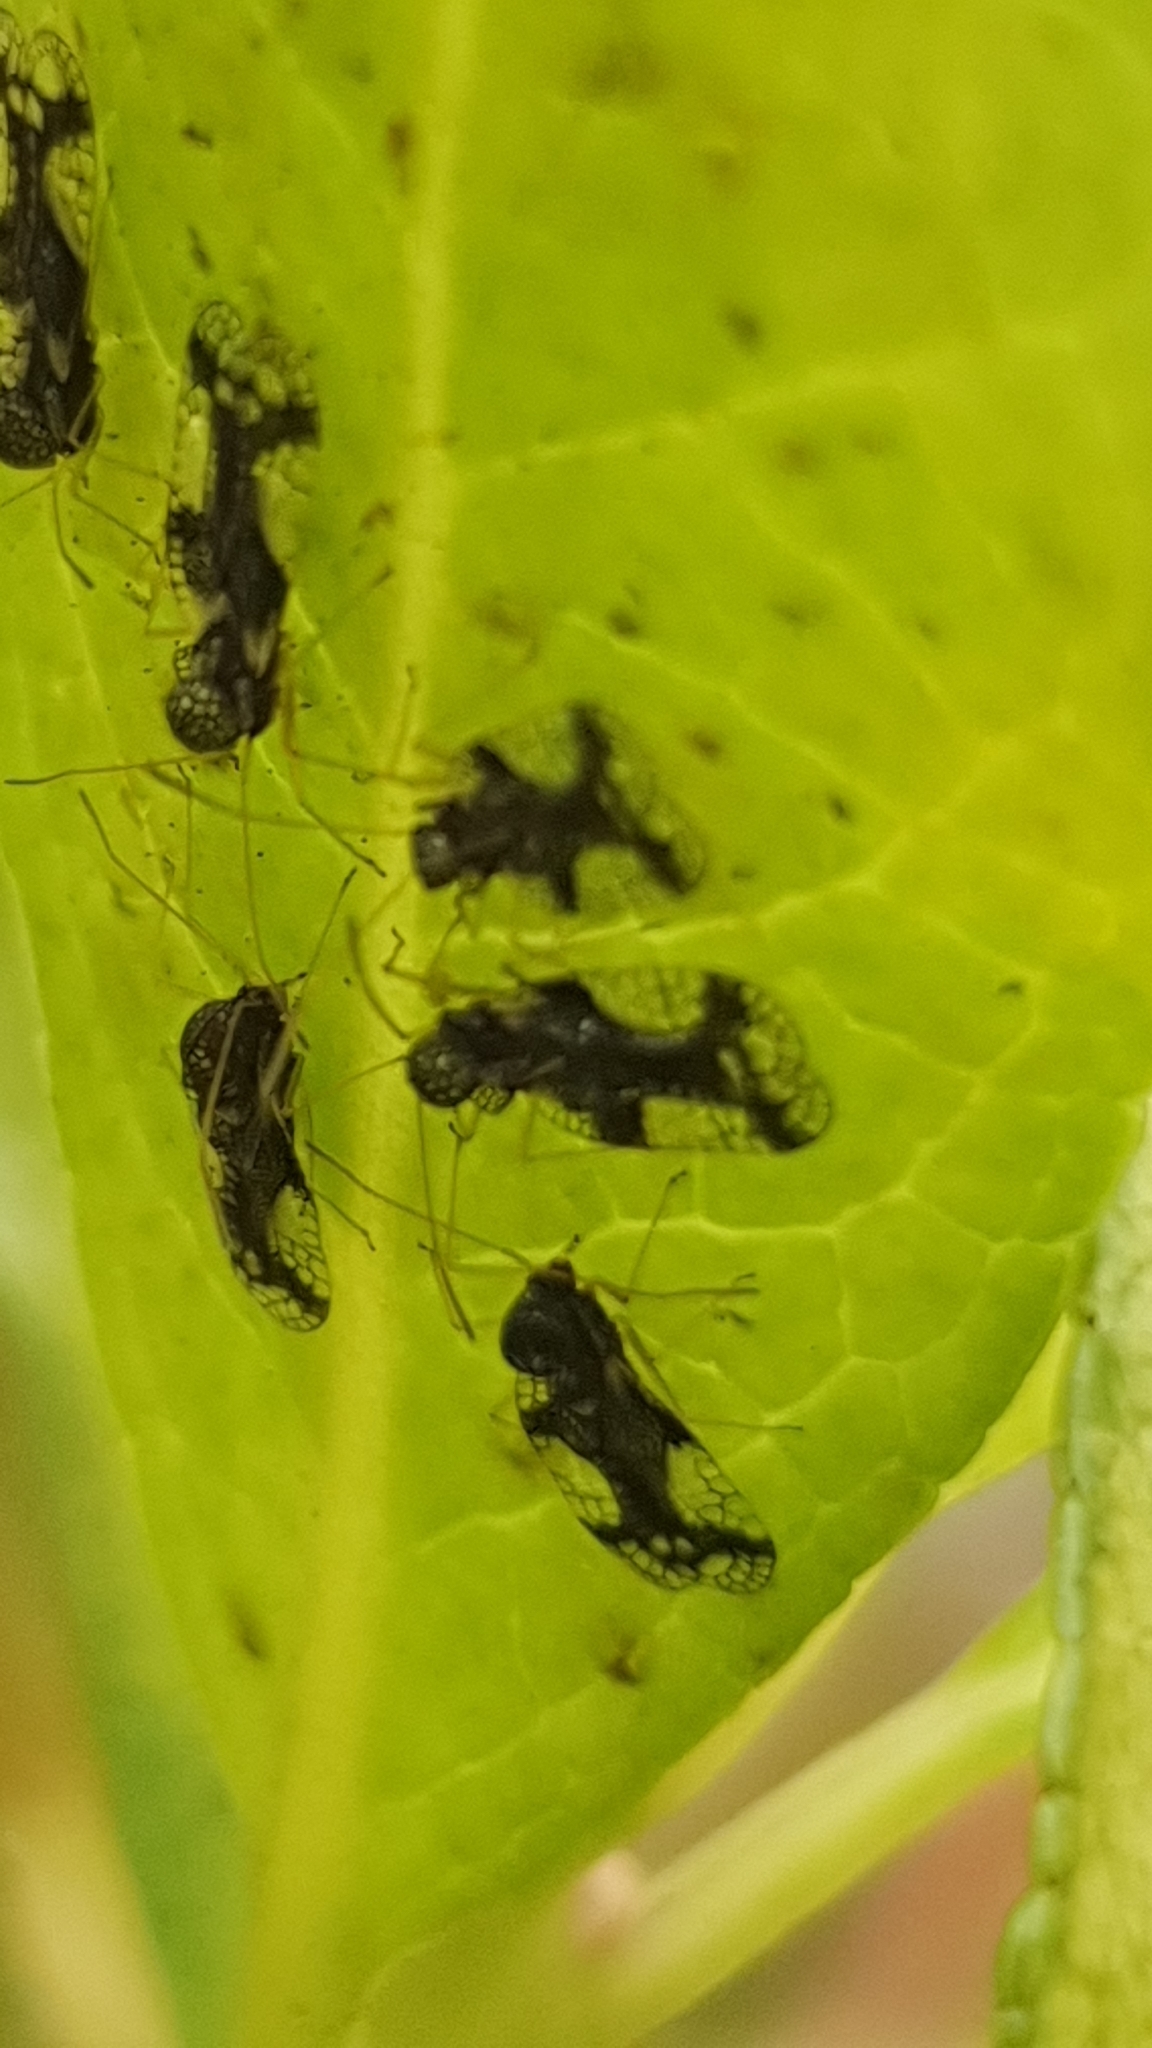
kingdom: Animalia
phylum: Arthropoda
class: Insecta
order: Hemiptera
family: Tingidae
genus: Stephanitis
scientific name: Stephanitis takeyai
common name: Andromeda lacebug
